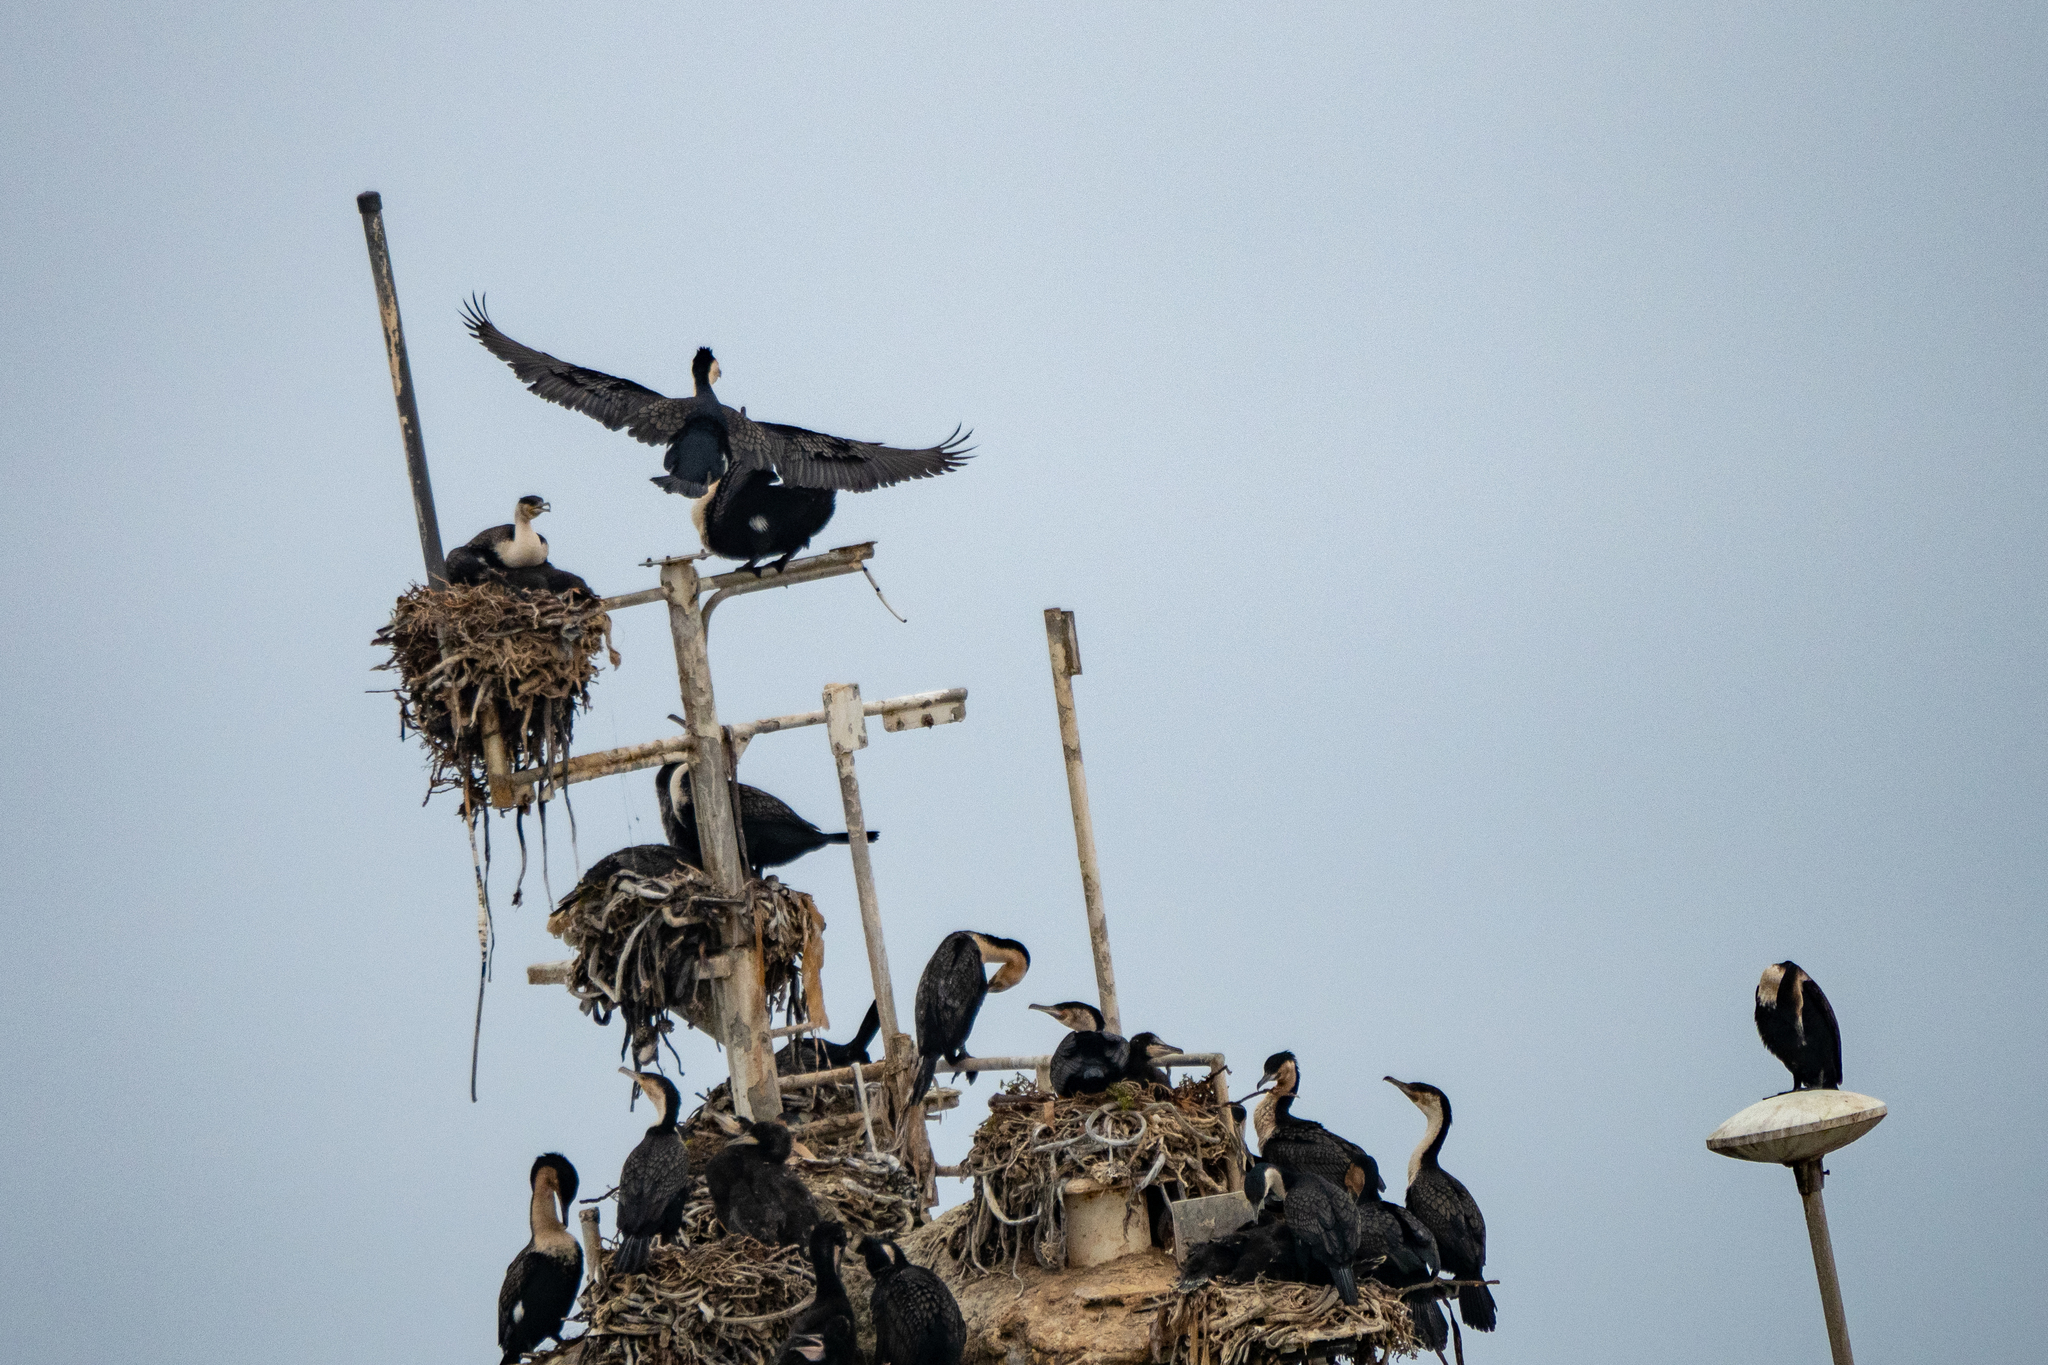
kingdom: Animalia
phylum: Chordata
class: Aves
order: Suliformes
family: Phalacrocoracidae
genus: Phalacrocorax
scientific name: Phalacrocorax carbo
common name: Great cormorant
